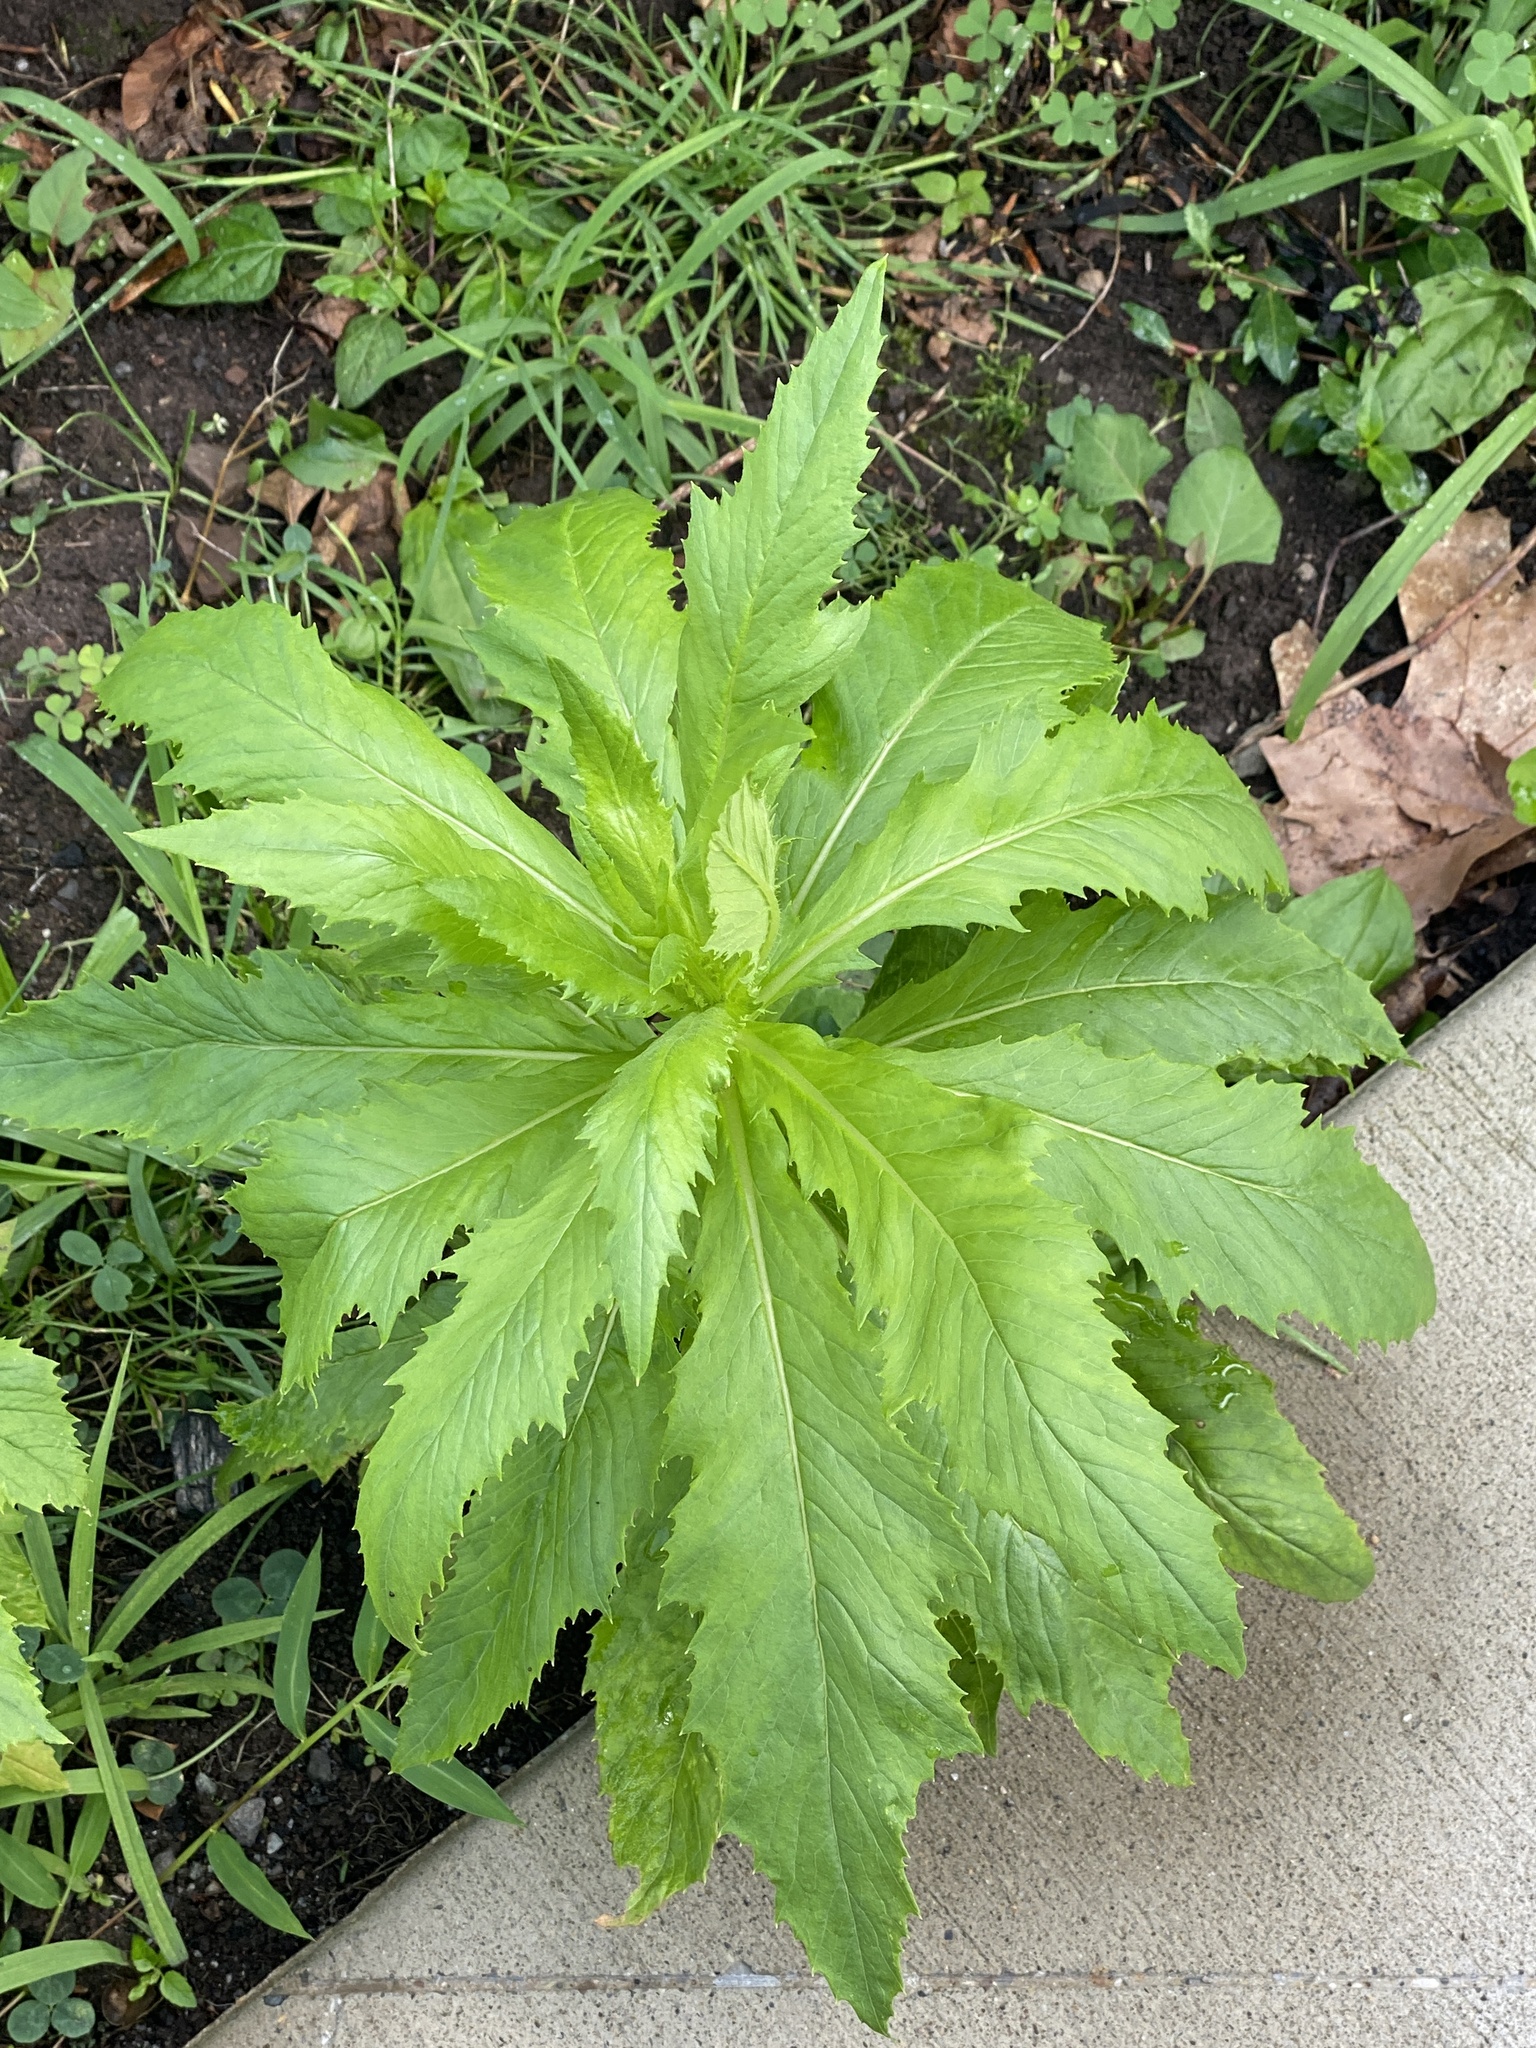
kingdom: Plantae
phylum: Tracheophyta
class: Magnoliopsida
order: Asterales
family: Asteraceae
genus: Erechtites
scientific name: Erechtites hieraciifolius
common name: American burnweed
